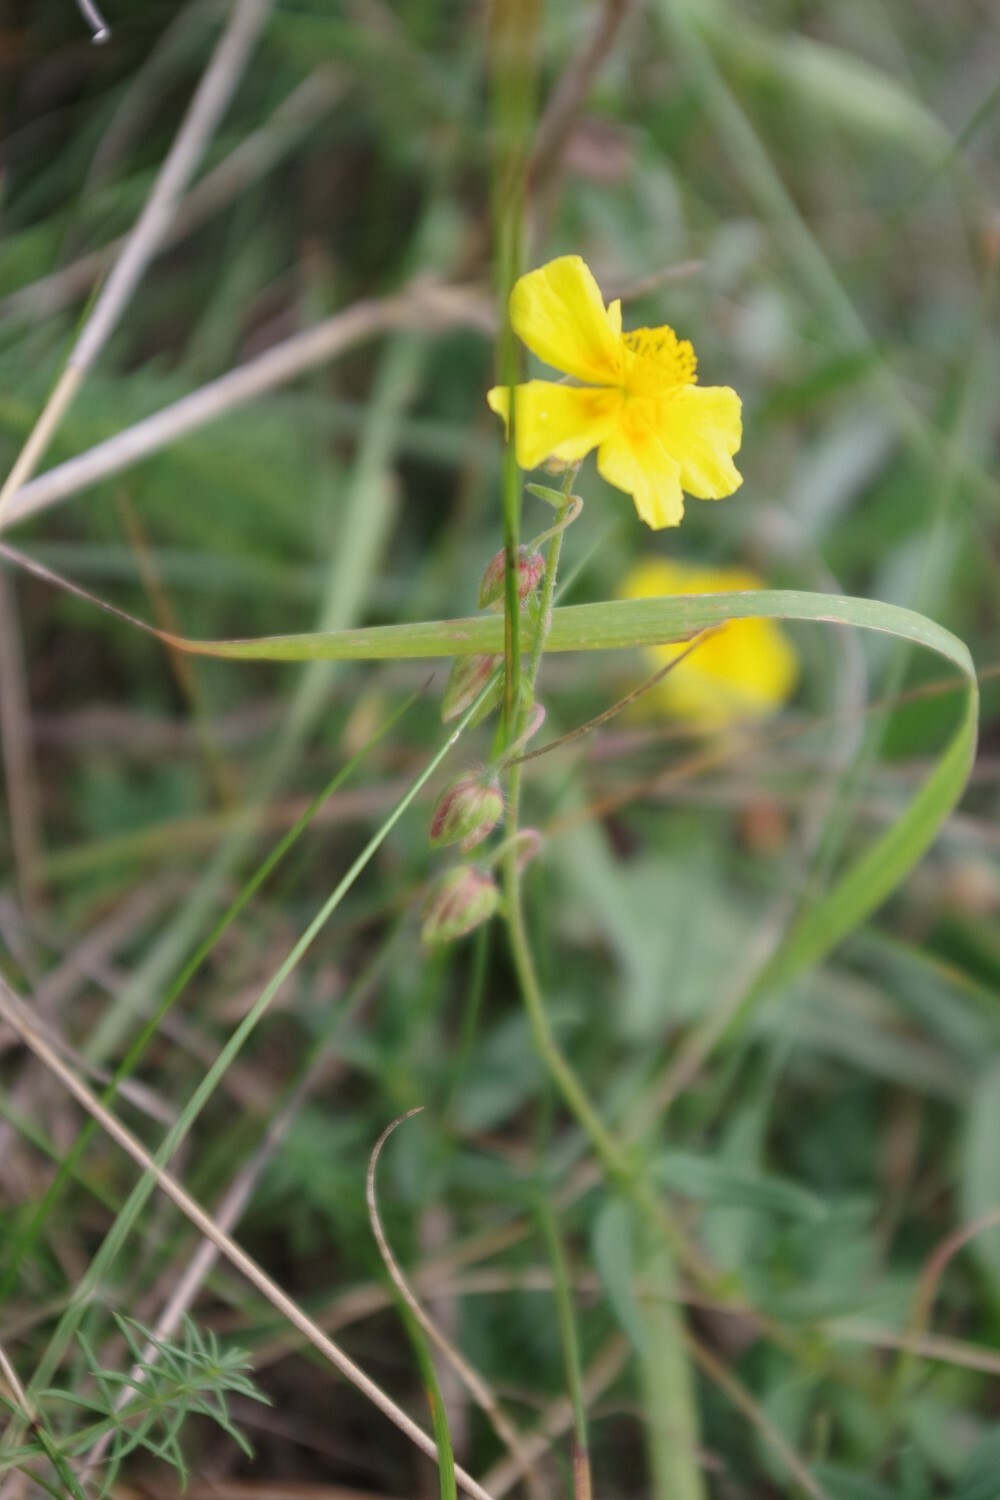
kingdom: Plantae
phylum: Tracheophyta
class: Magnoliopsida
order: Malvales
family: Cistaceae
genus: Helianthemum
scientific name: Helianthemum nummularium
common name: Common rock-rose
